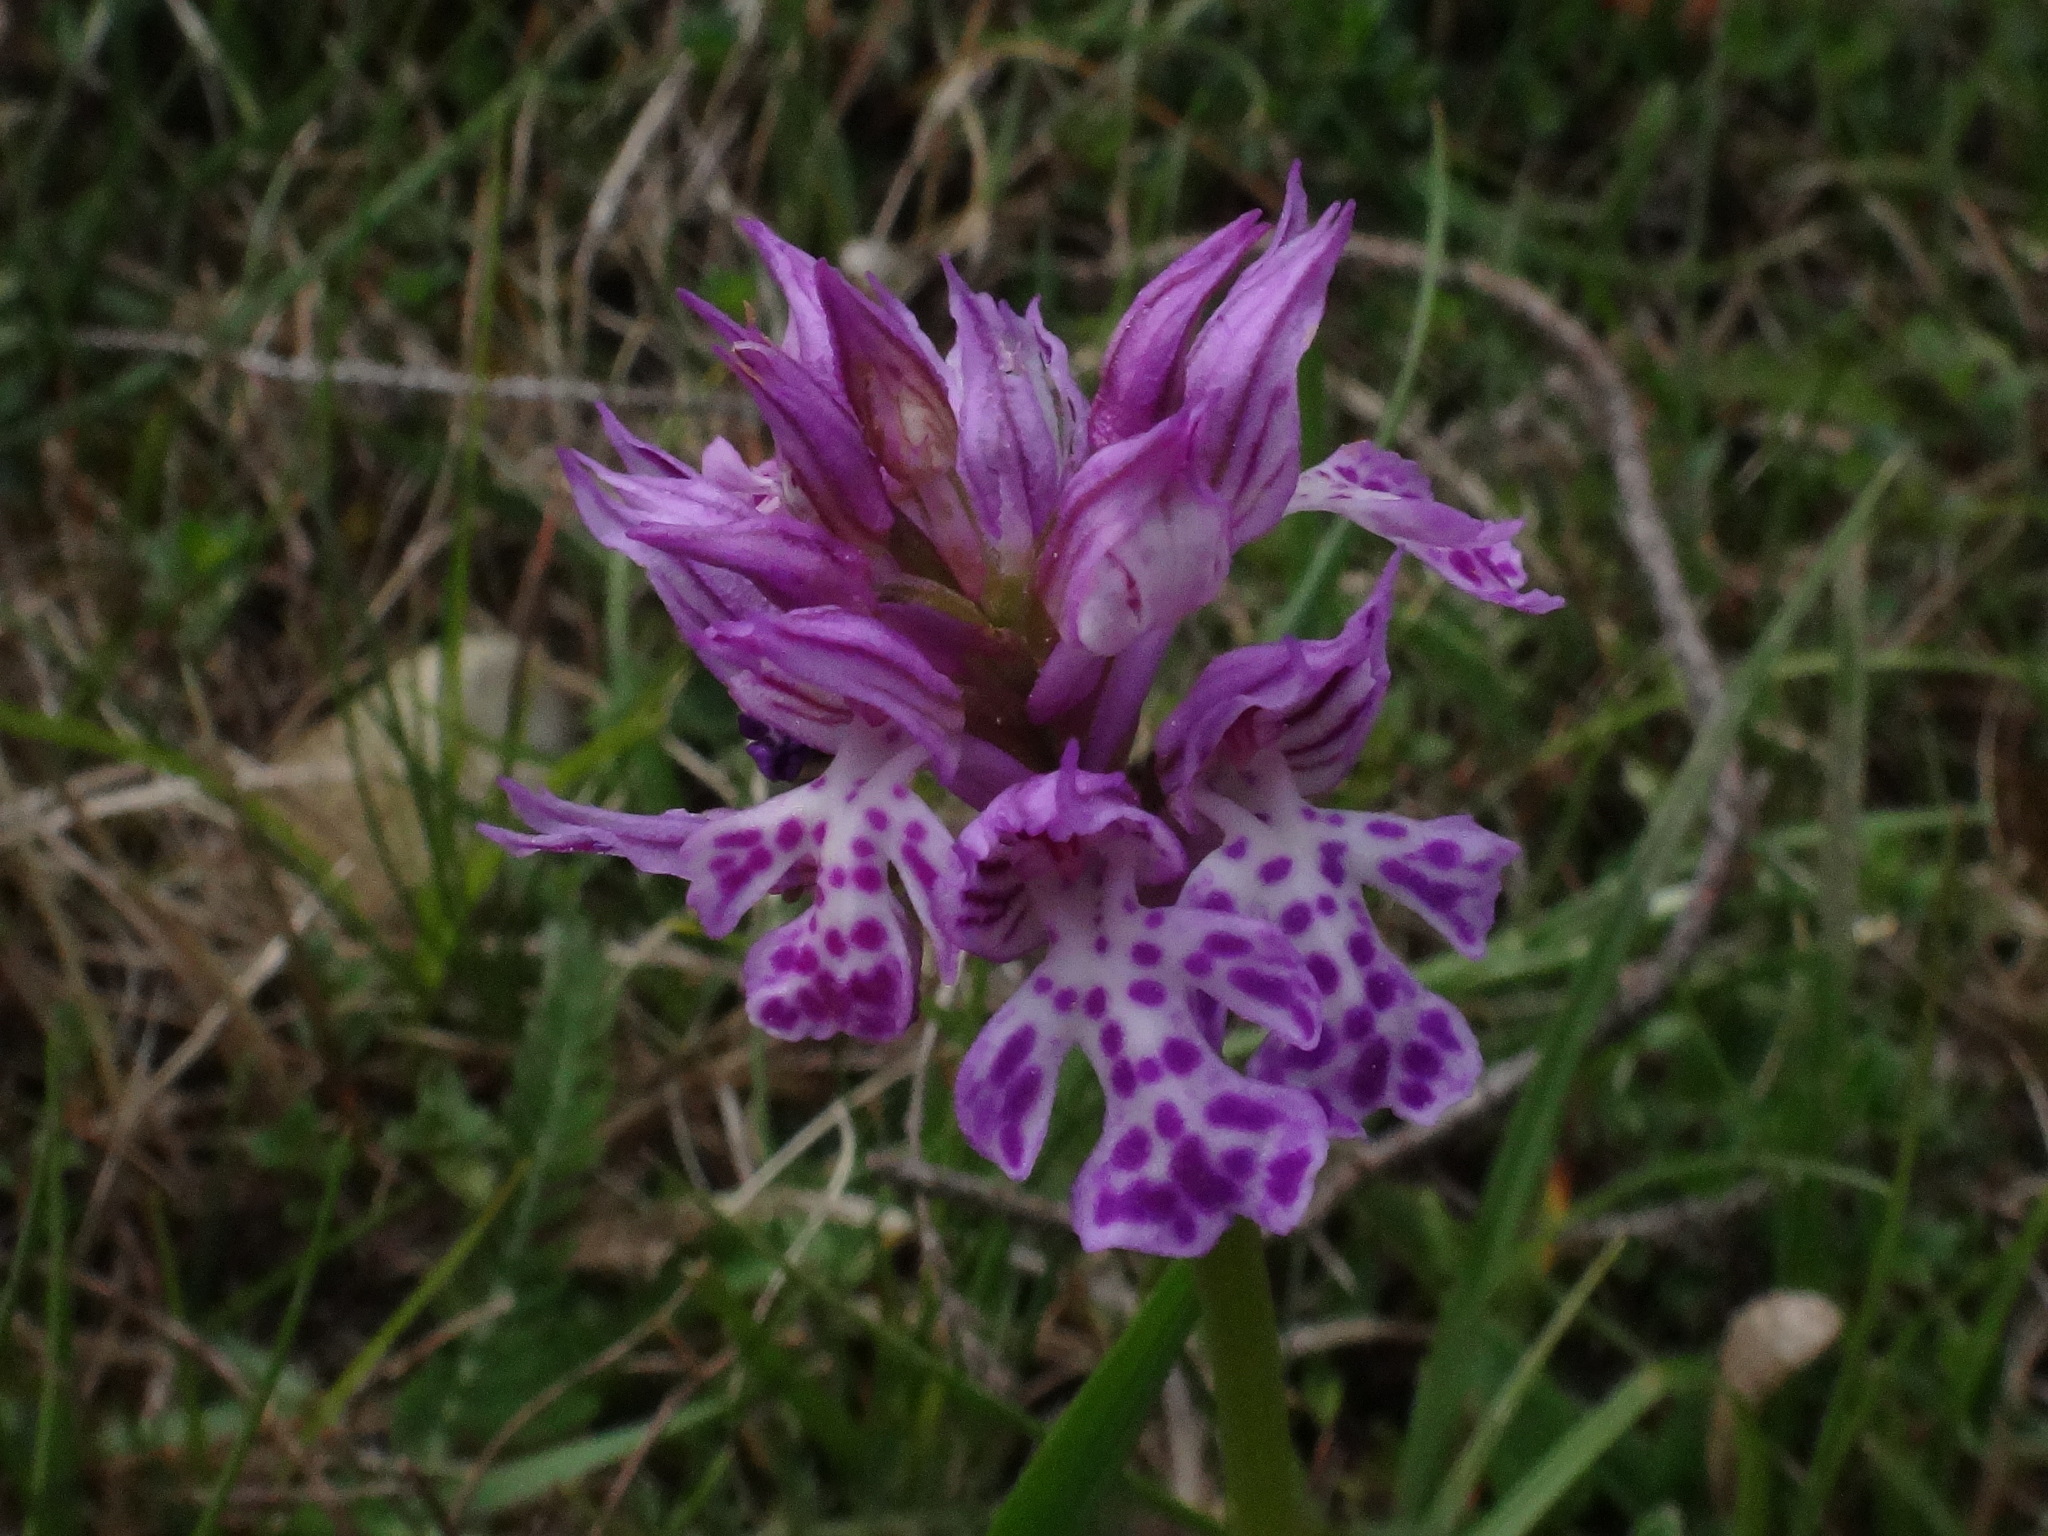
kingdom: Plantae
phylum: Tracheophyta
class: Liliopsida
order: Asparagales
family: Orchidaceae
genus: Neotinea
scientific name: Neotinea tridentata
